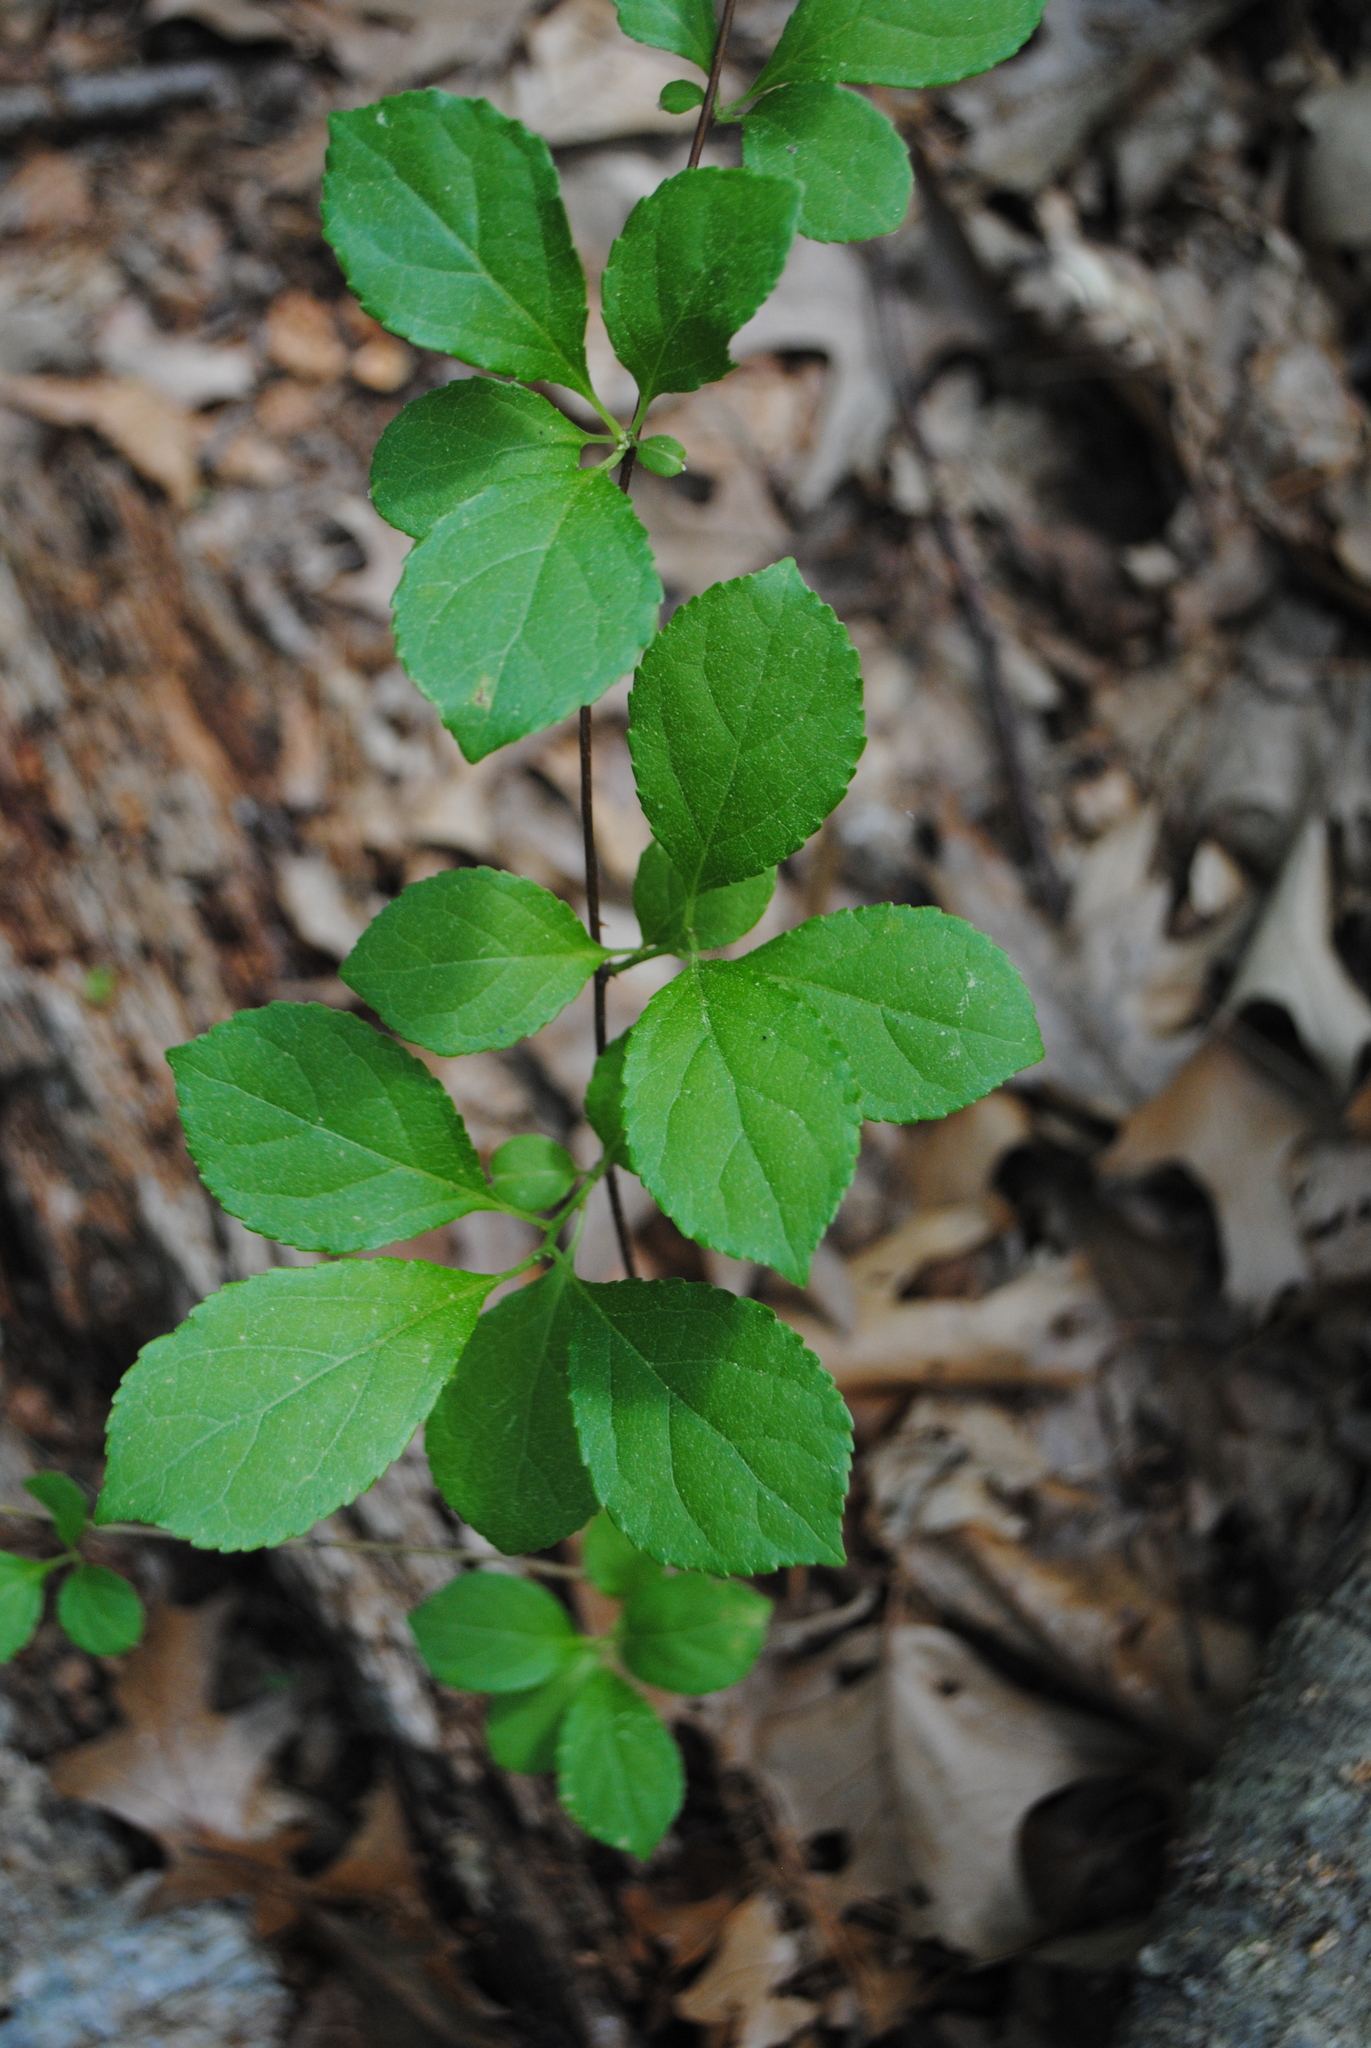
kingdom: Plantae
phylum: Tracheophyta
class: Magnoliopsida
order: Celastrales
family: Celastraceae
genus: Celastrus
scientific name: Celastrus orbiculatus
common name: Oriental bittersweet
